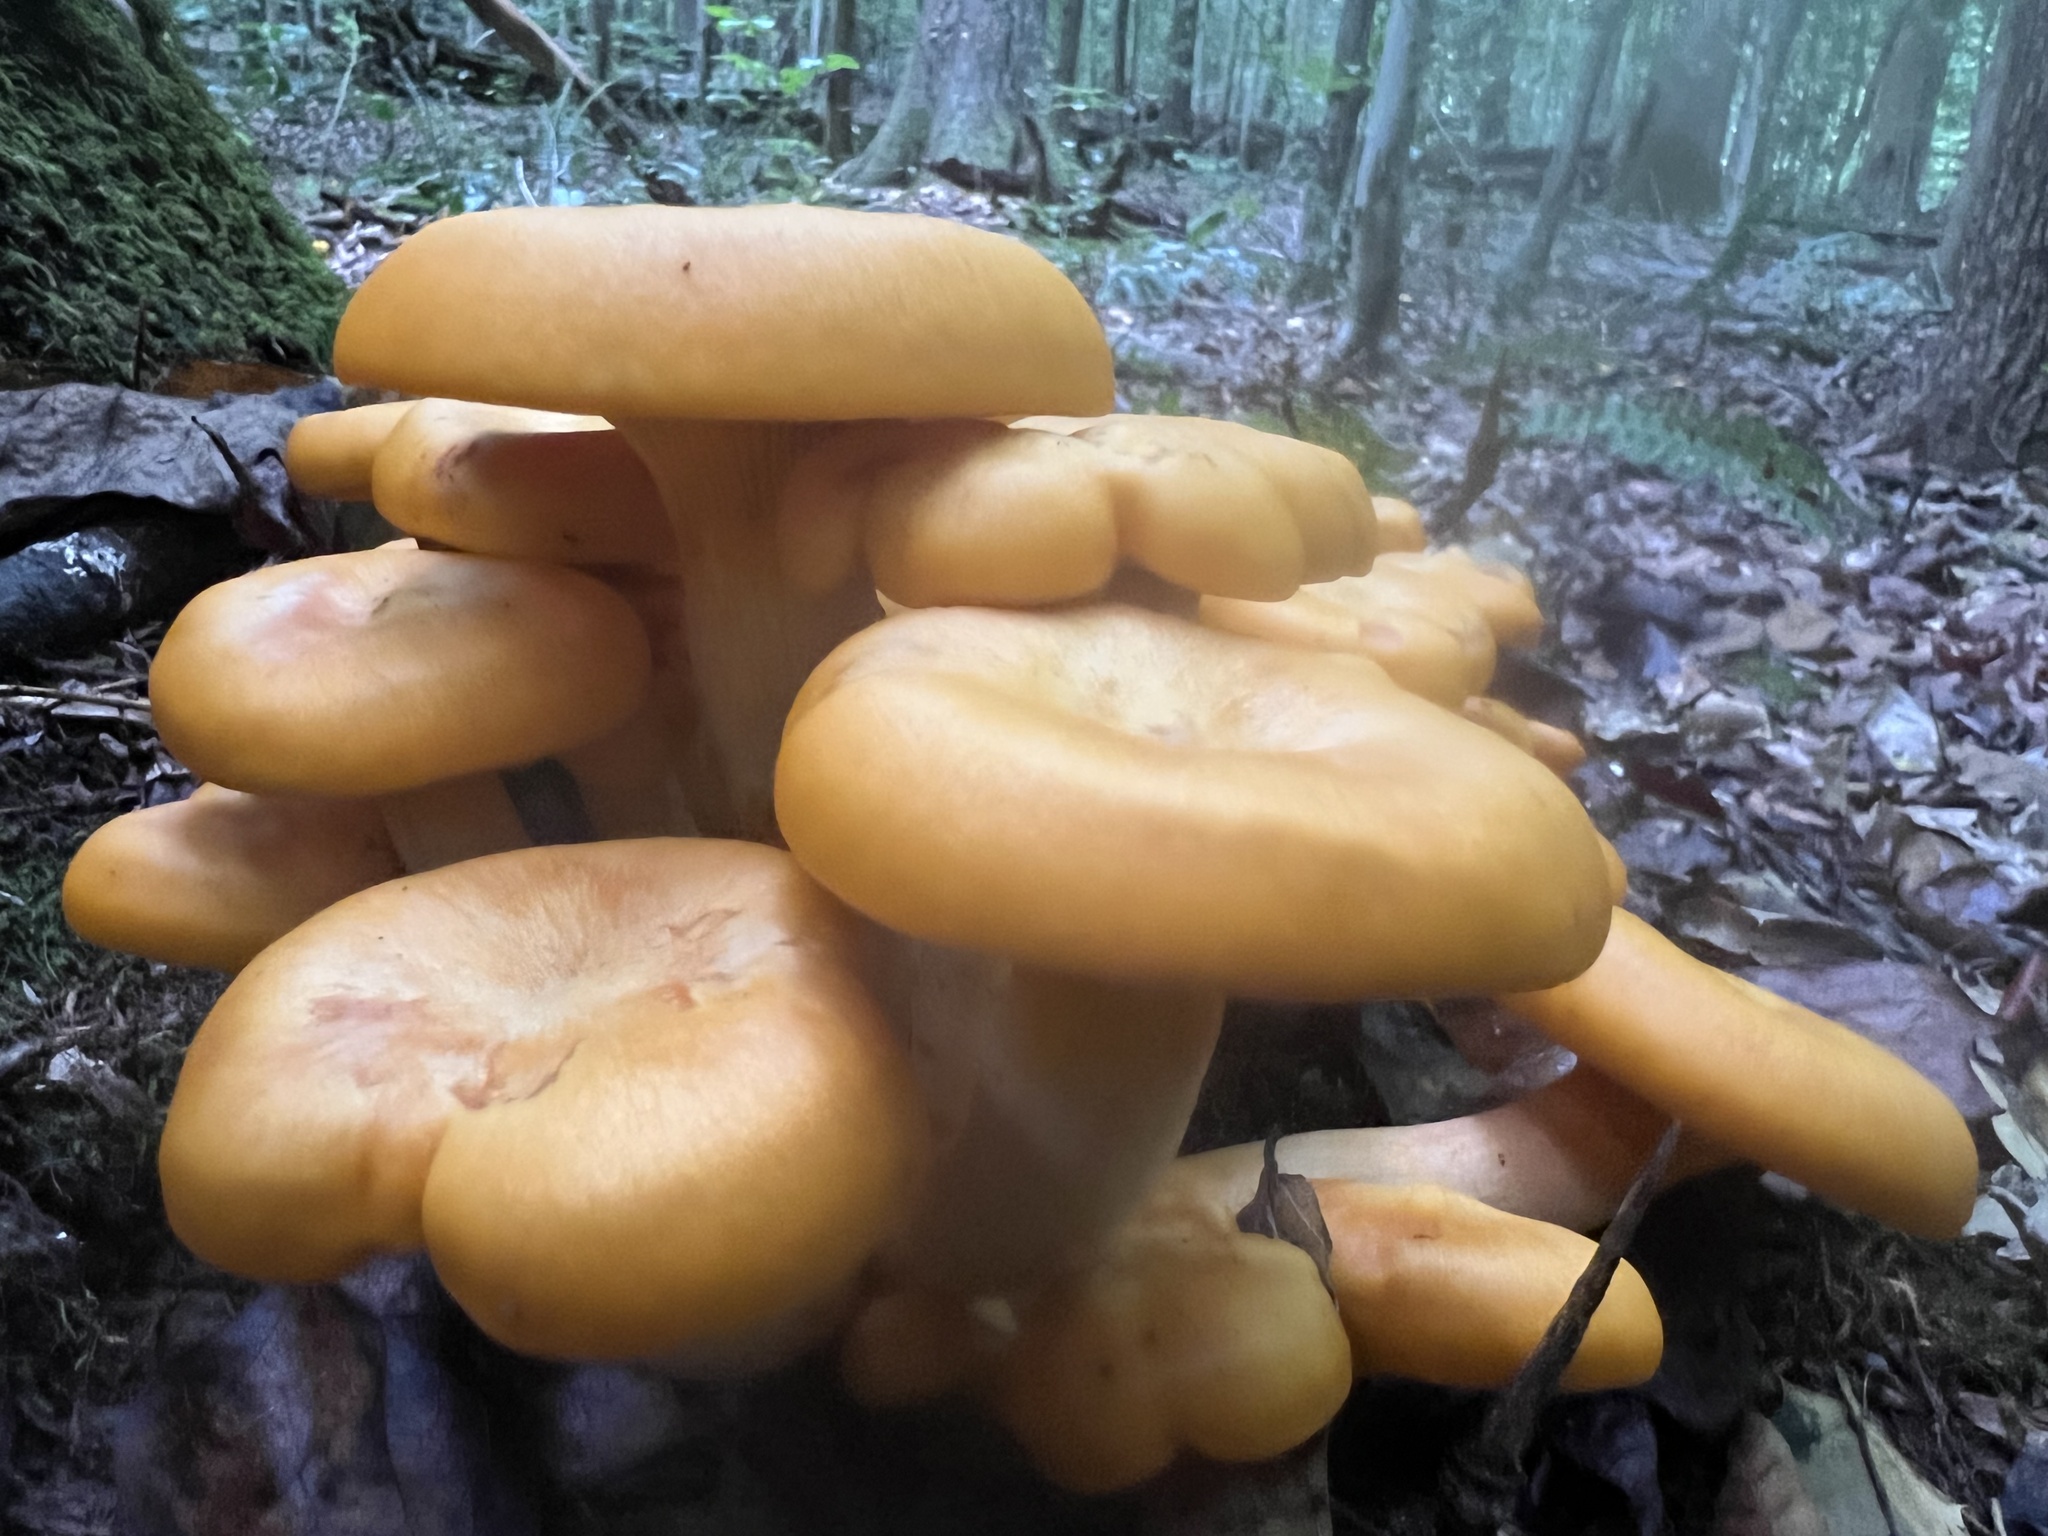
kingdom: Fungi
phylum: Basidiomycota
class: Agaricomycetes
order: Agaricales
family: Omphalotaceae
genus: Omphalotus
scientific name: Omphalotus illudens
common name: Jack o lantern
